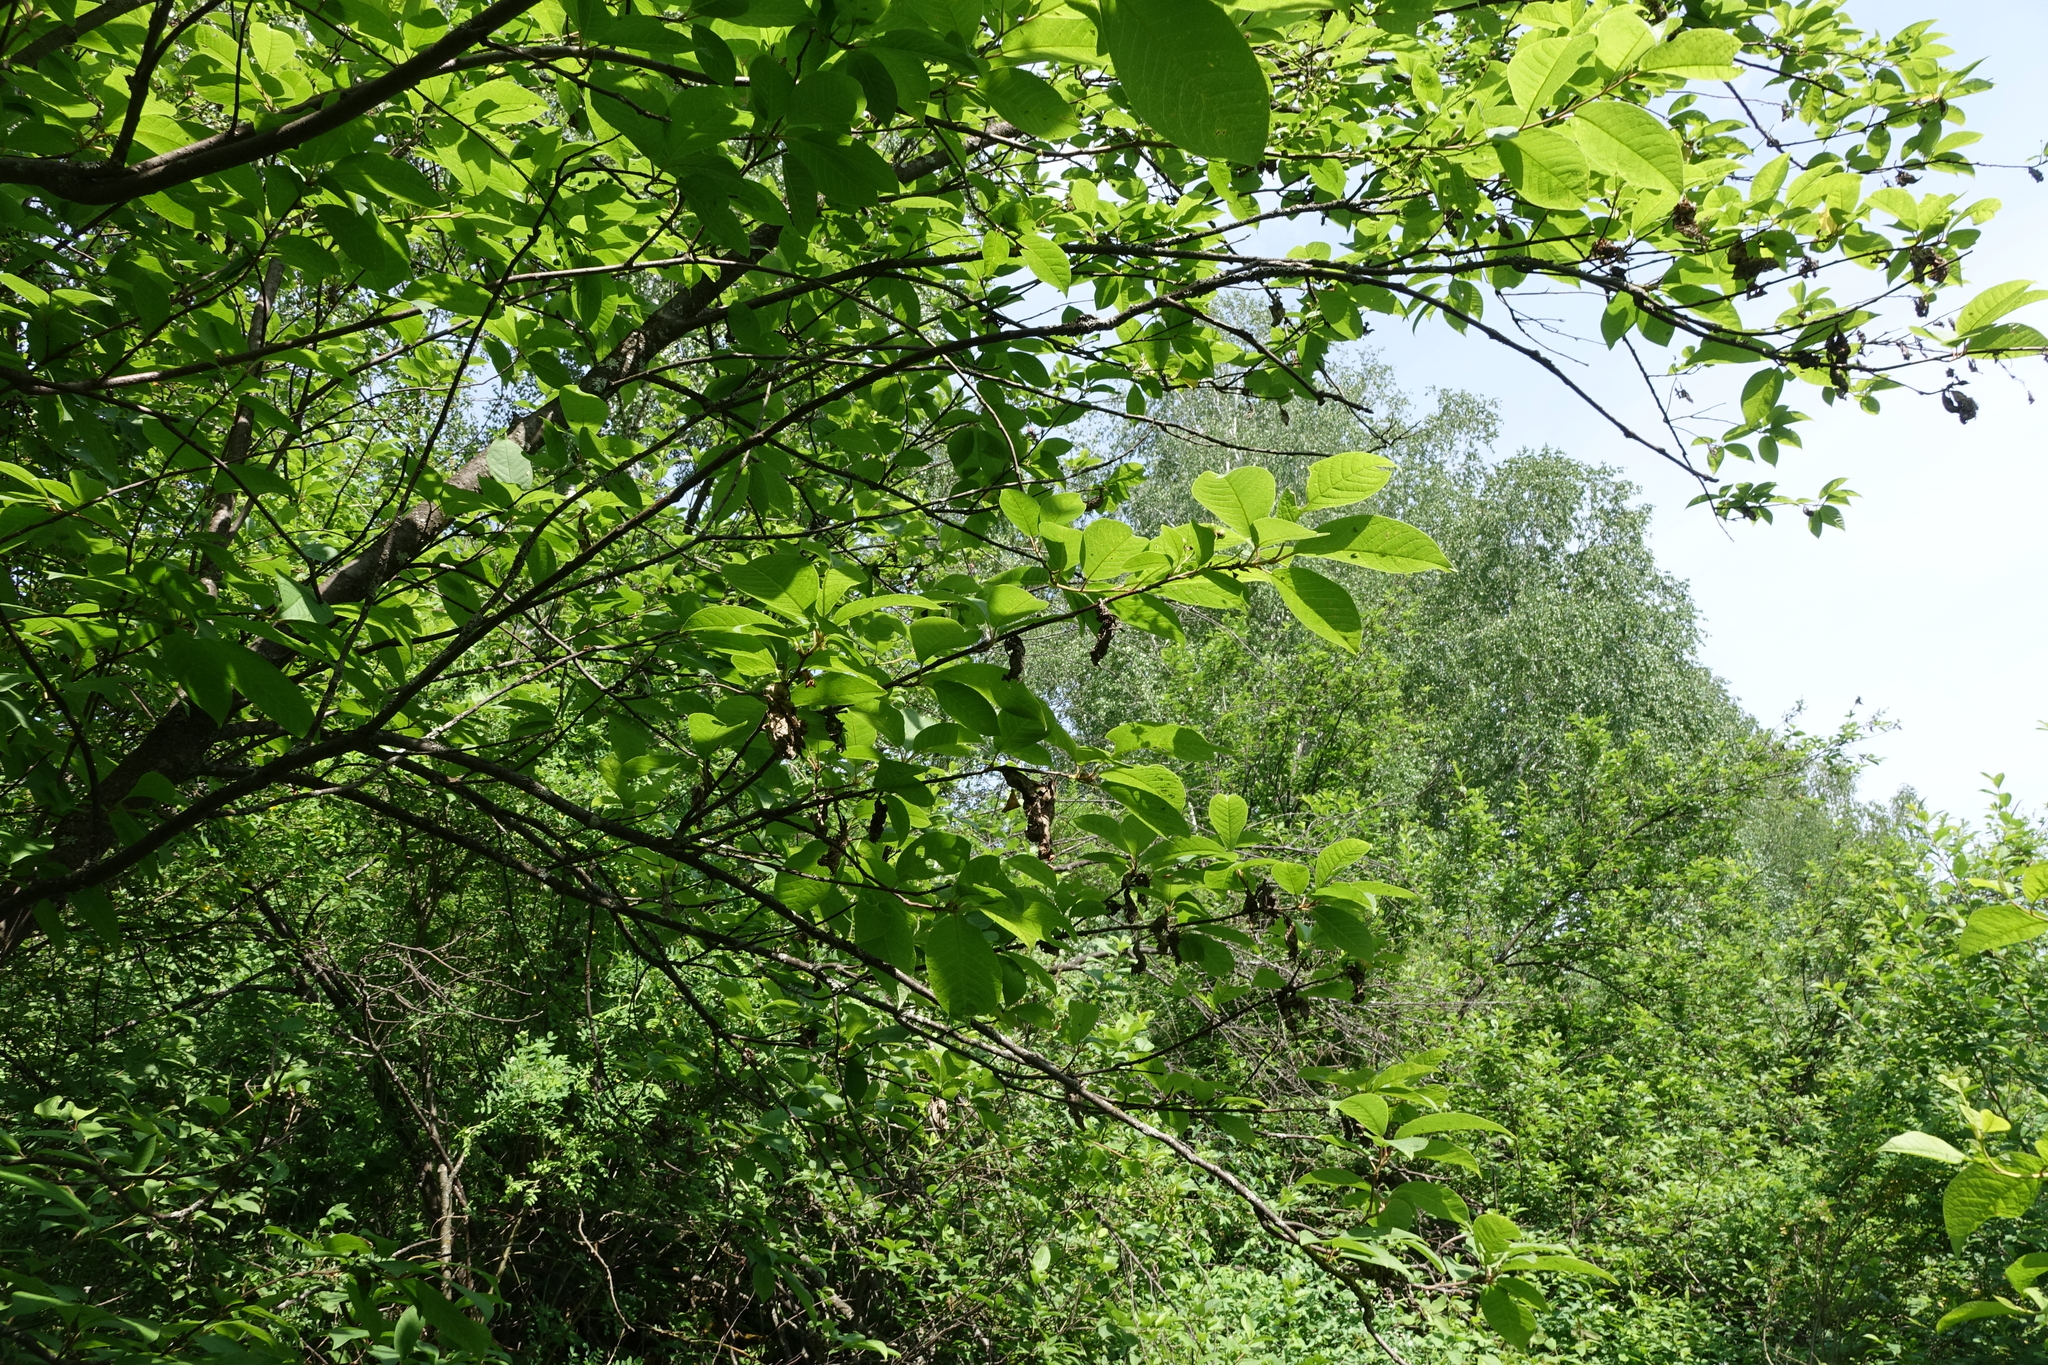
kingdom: Plantae
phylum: Tracheophyta
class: Magnoliopsida
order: Rosales
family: Rosaceae
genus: Prunus
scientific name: Prunus padus
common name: Bird cherry
